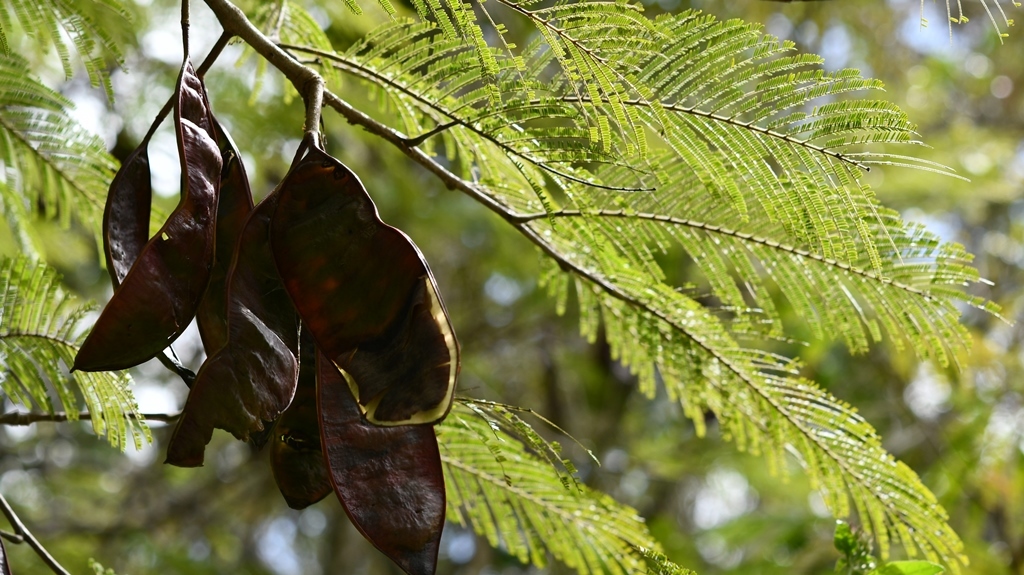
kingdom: Plantae
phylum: Tracheophyta
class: Magnoliopsida
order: Fabales
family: Fabaceae
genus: Lysiloma
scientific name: Lysiloma auritum
